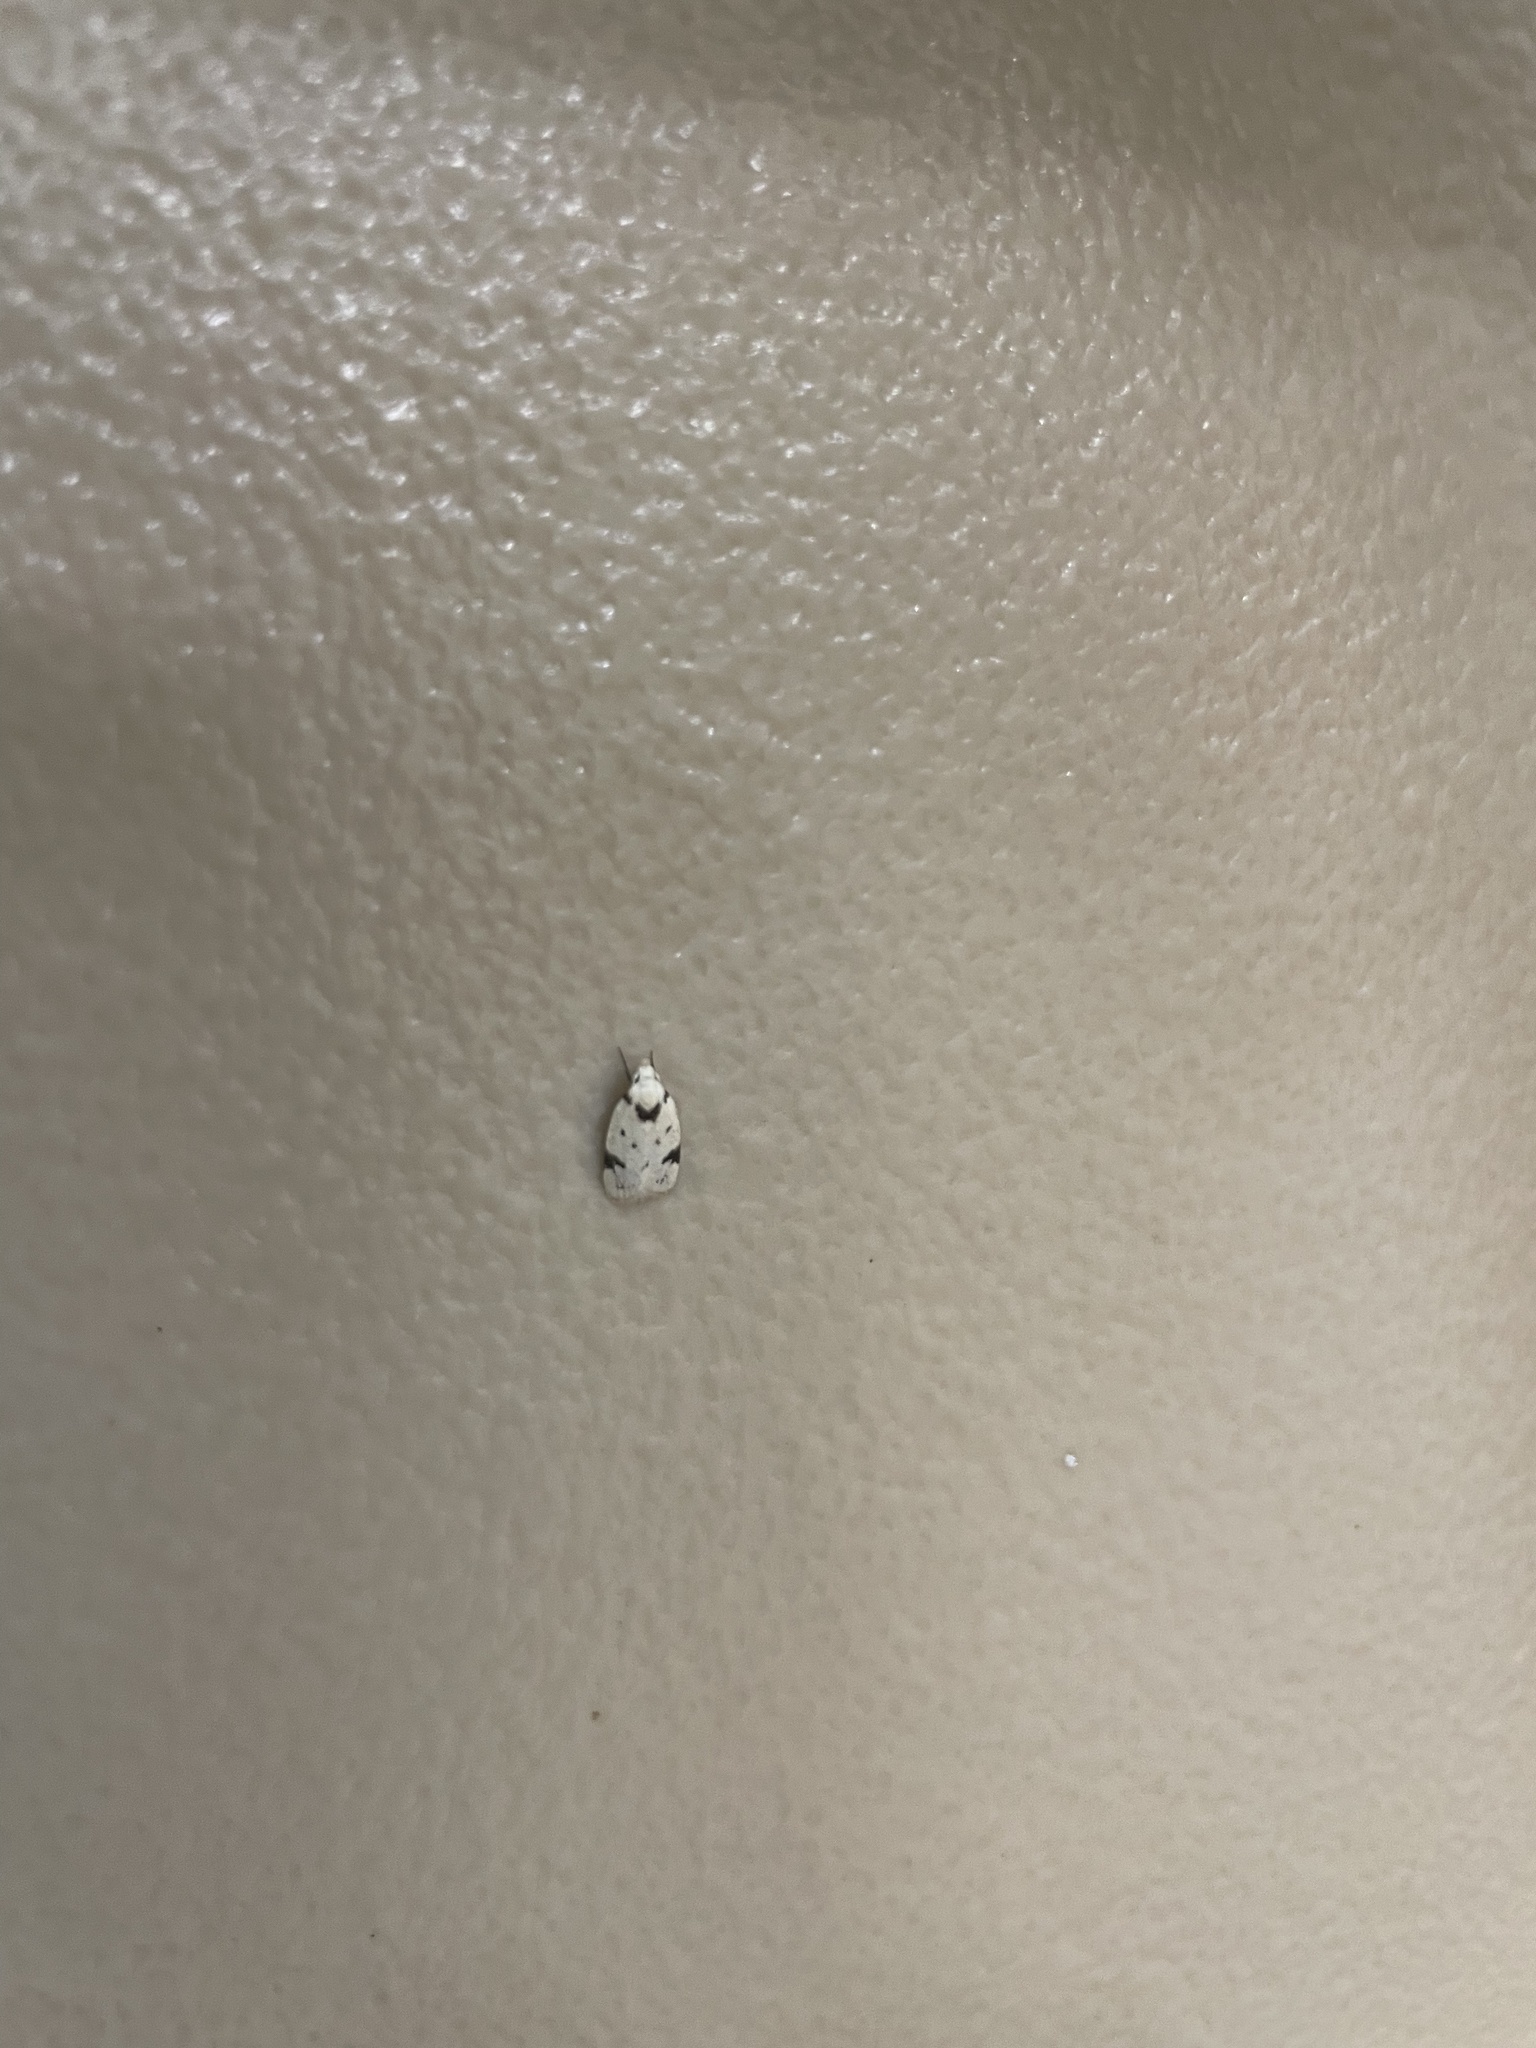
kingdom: Animalia
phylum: Arthropoda
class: Insecta
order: Lepidoptera
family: Oecophoridae
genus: Inga
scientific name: Inga sparsiciliella
